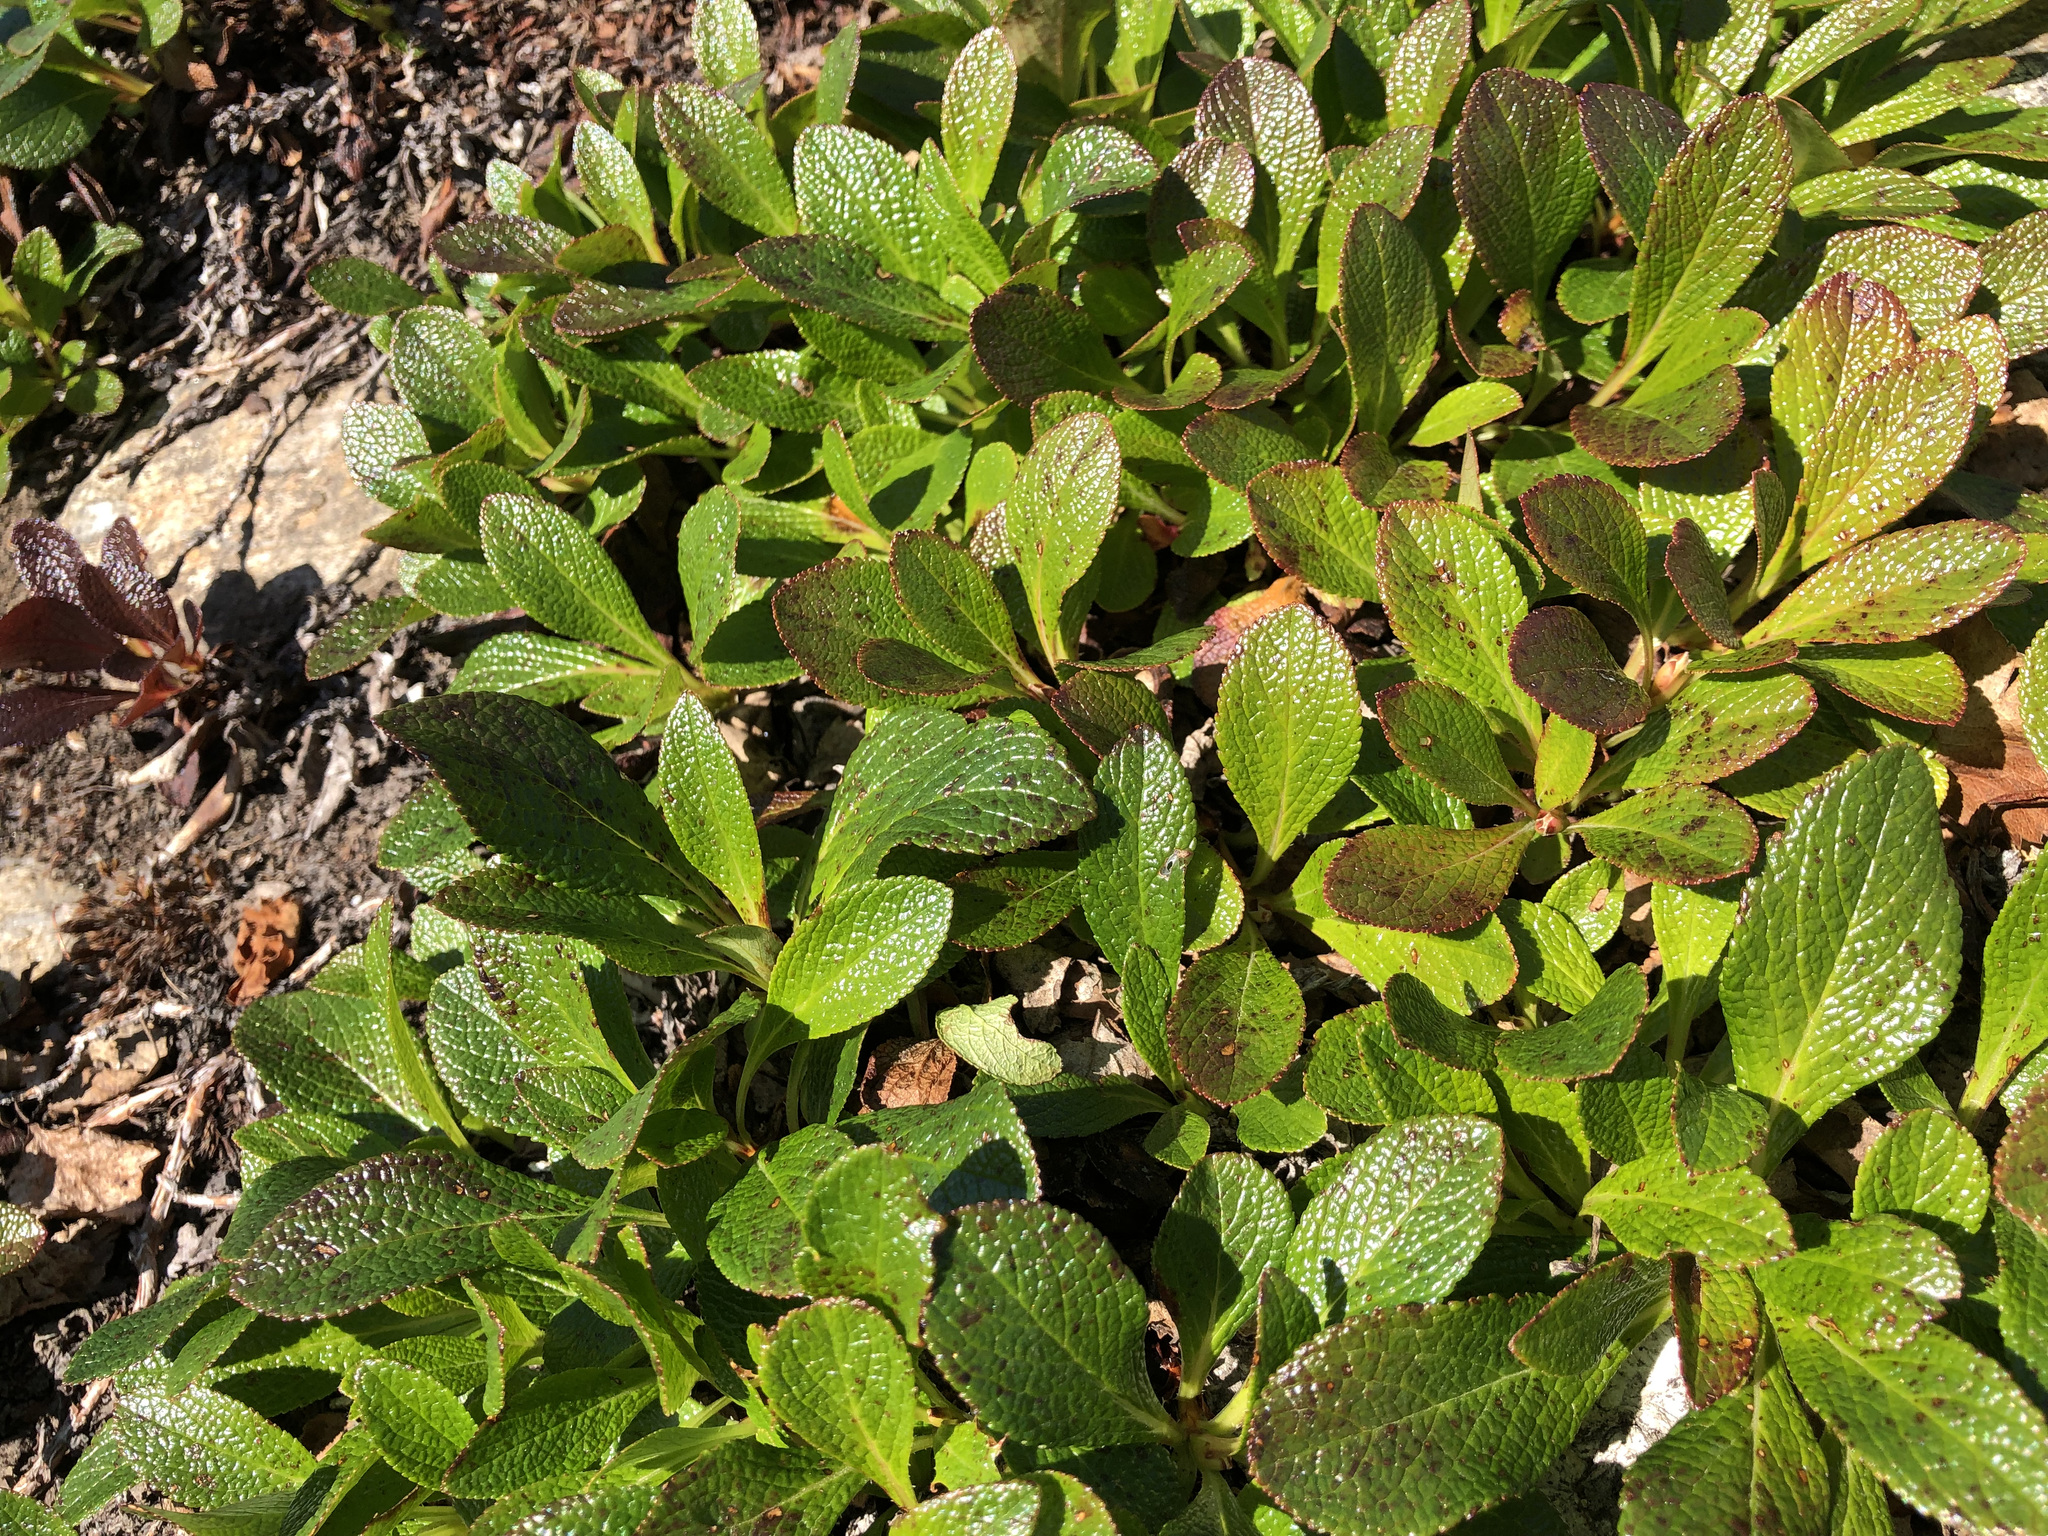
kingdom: Plantae
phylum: Tracheophyta
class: Magnoliopsida
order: Ericales
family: Ericaceae
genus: Arctostaphylos
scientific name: Arctostaphylos alpinus
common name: Alpine bearberry
